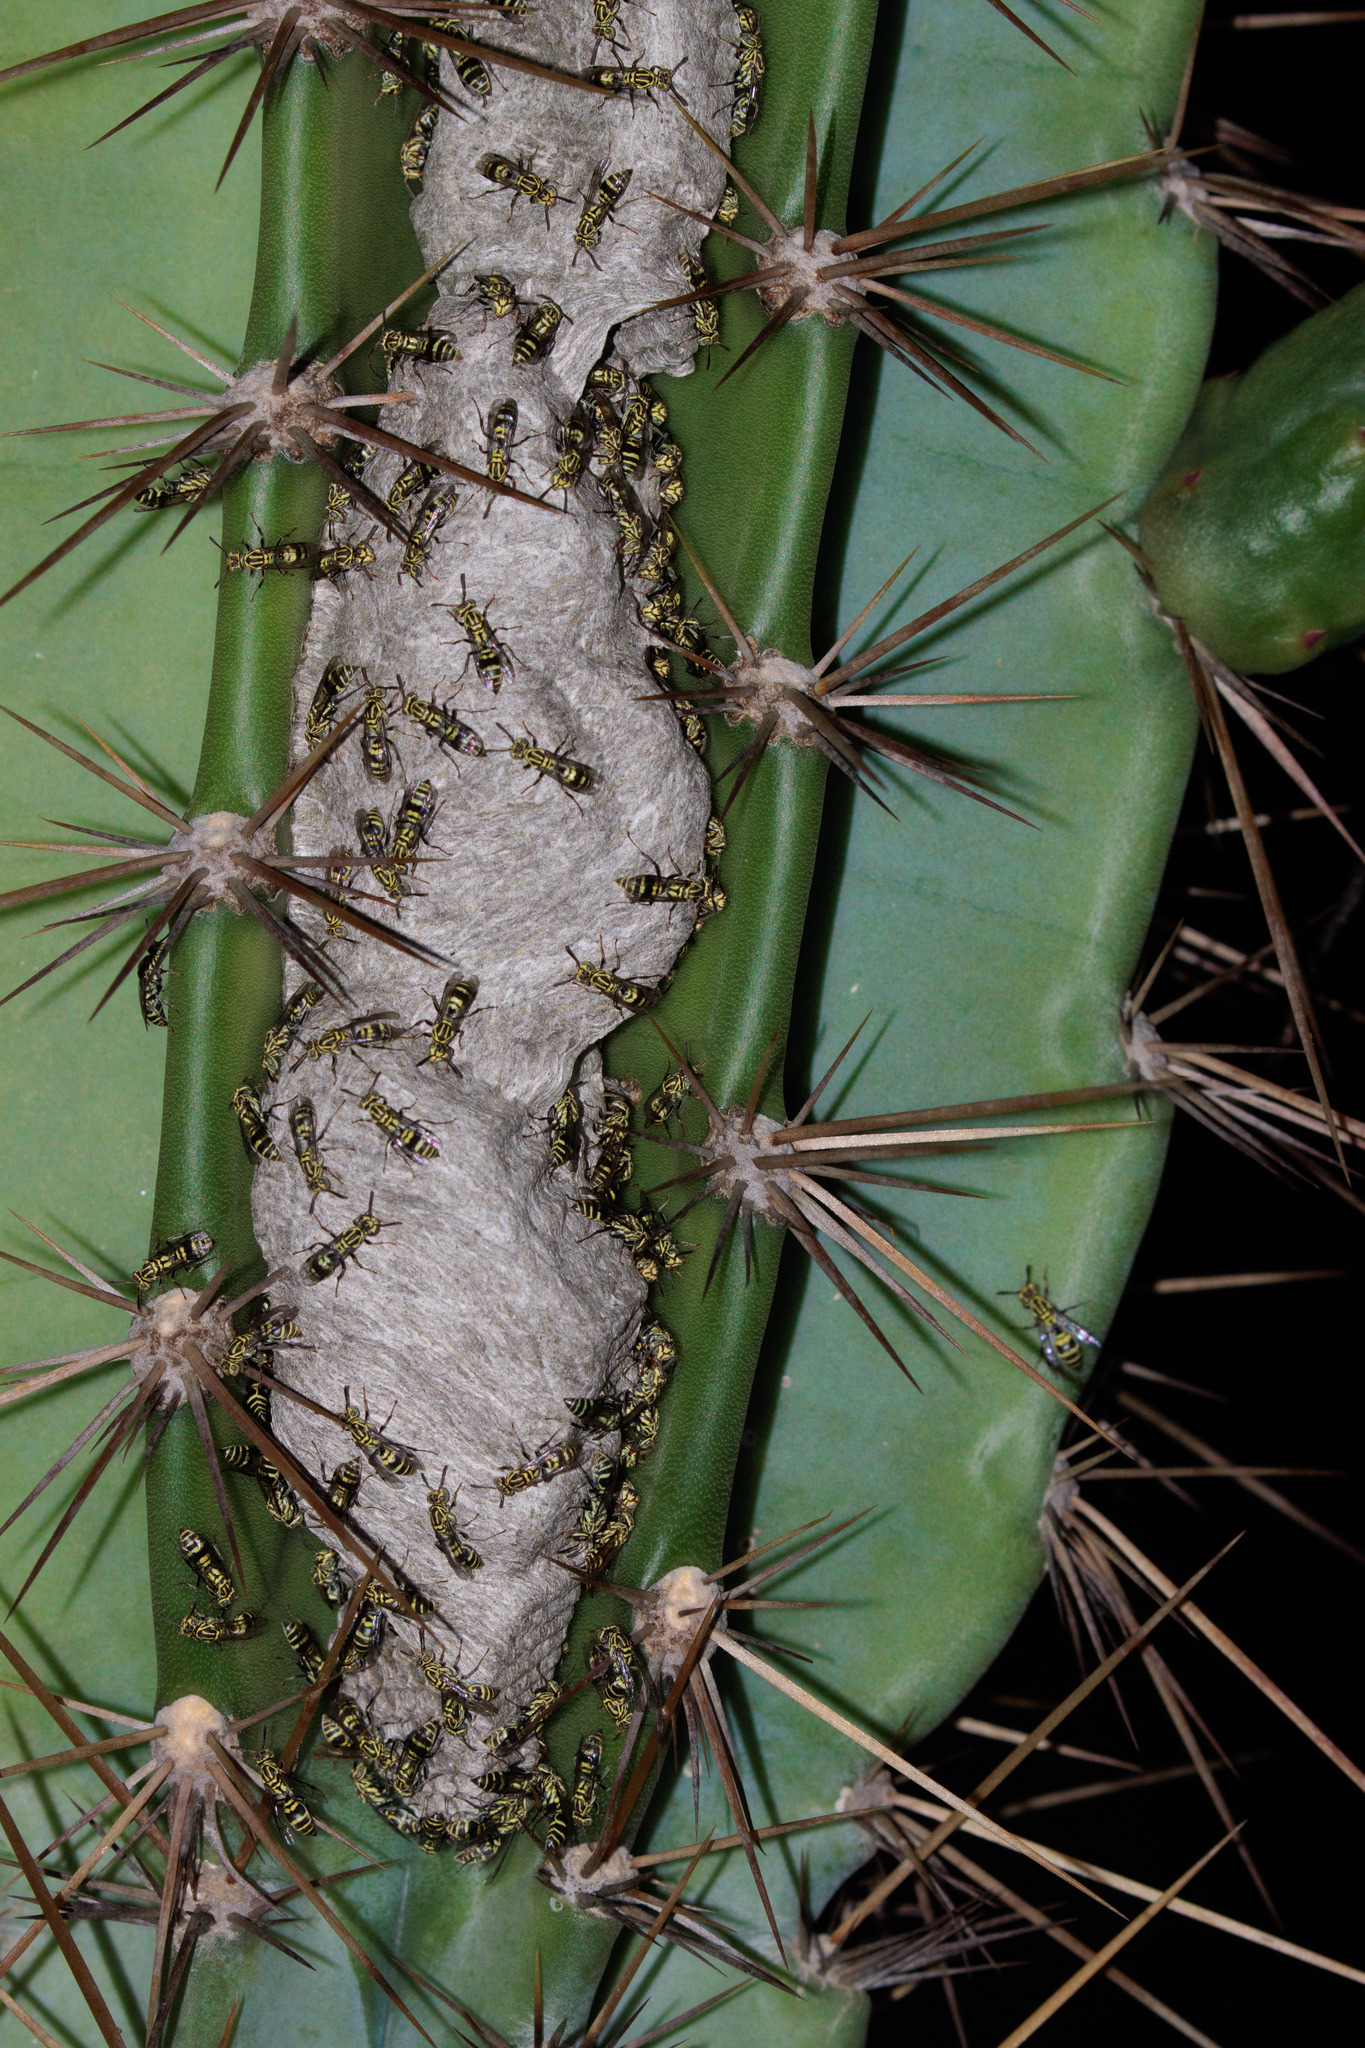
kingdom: Animalia
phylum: Arthropoda
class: Insecta
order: Hymenoptera
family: Vespidae
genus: Protopolybia
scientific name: Protopolybia exigua
